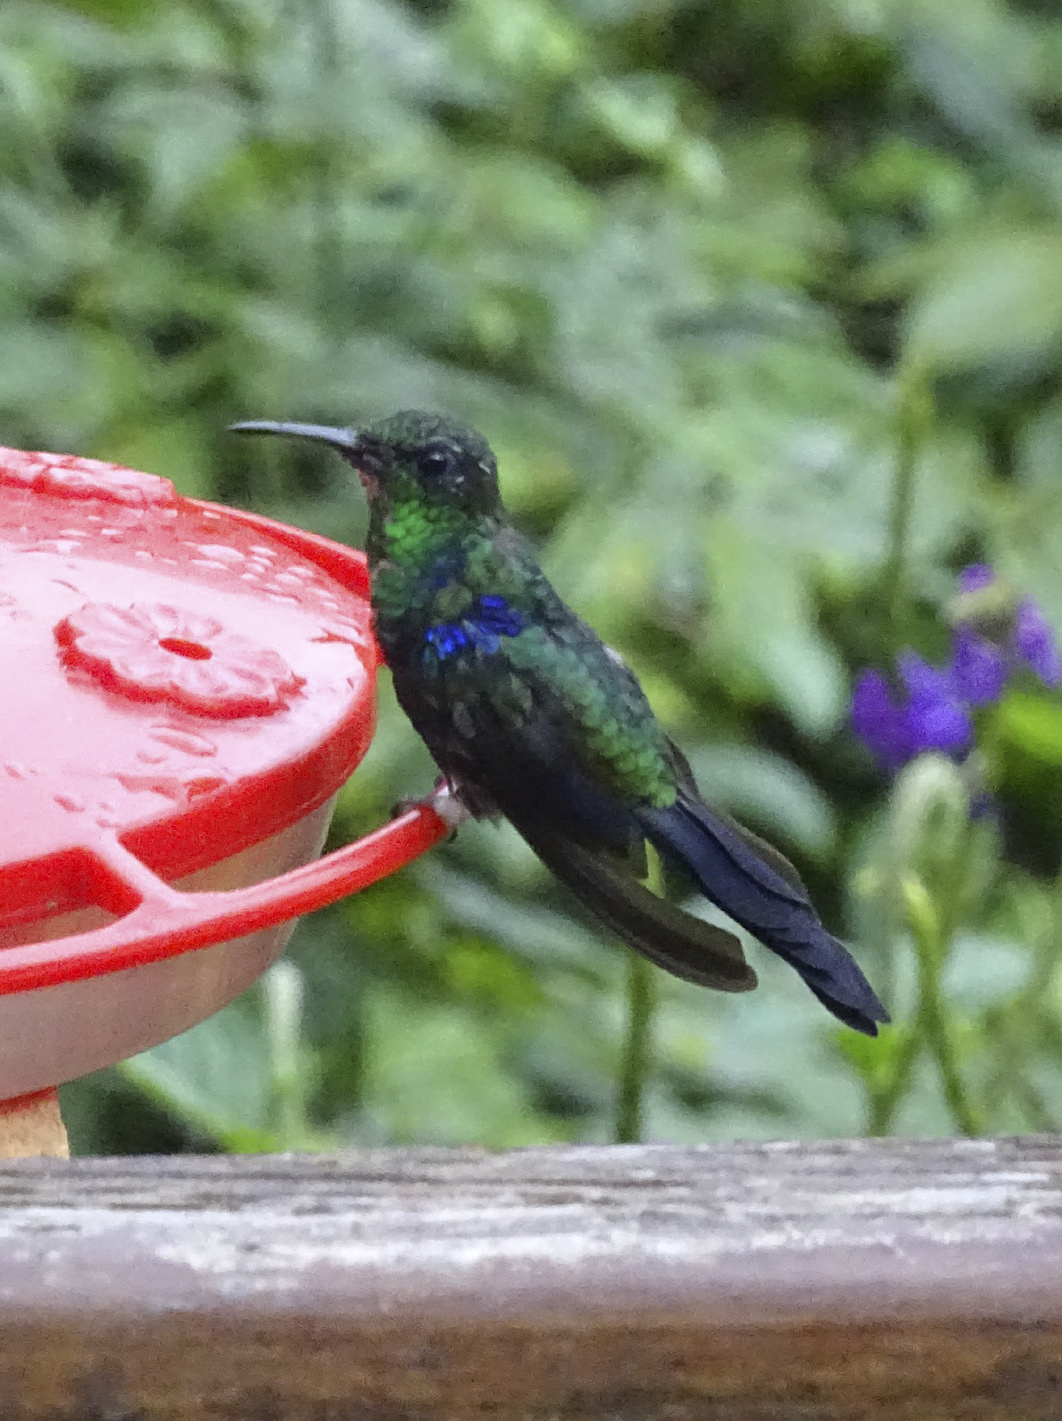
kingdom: Animalia
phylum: Chordata
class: Aves
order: Apodiformes
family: Trochilidae
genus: Thalurania
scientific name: Thalurania furcata
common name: Fork-tailed woodnymph
